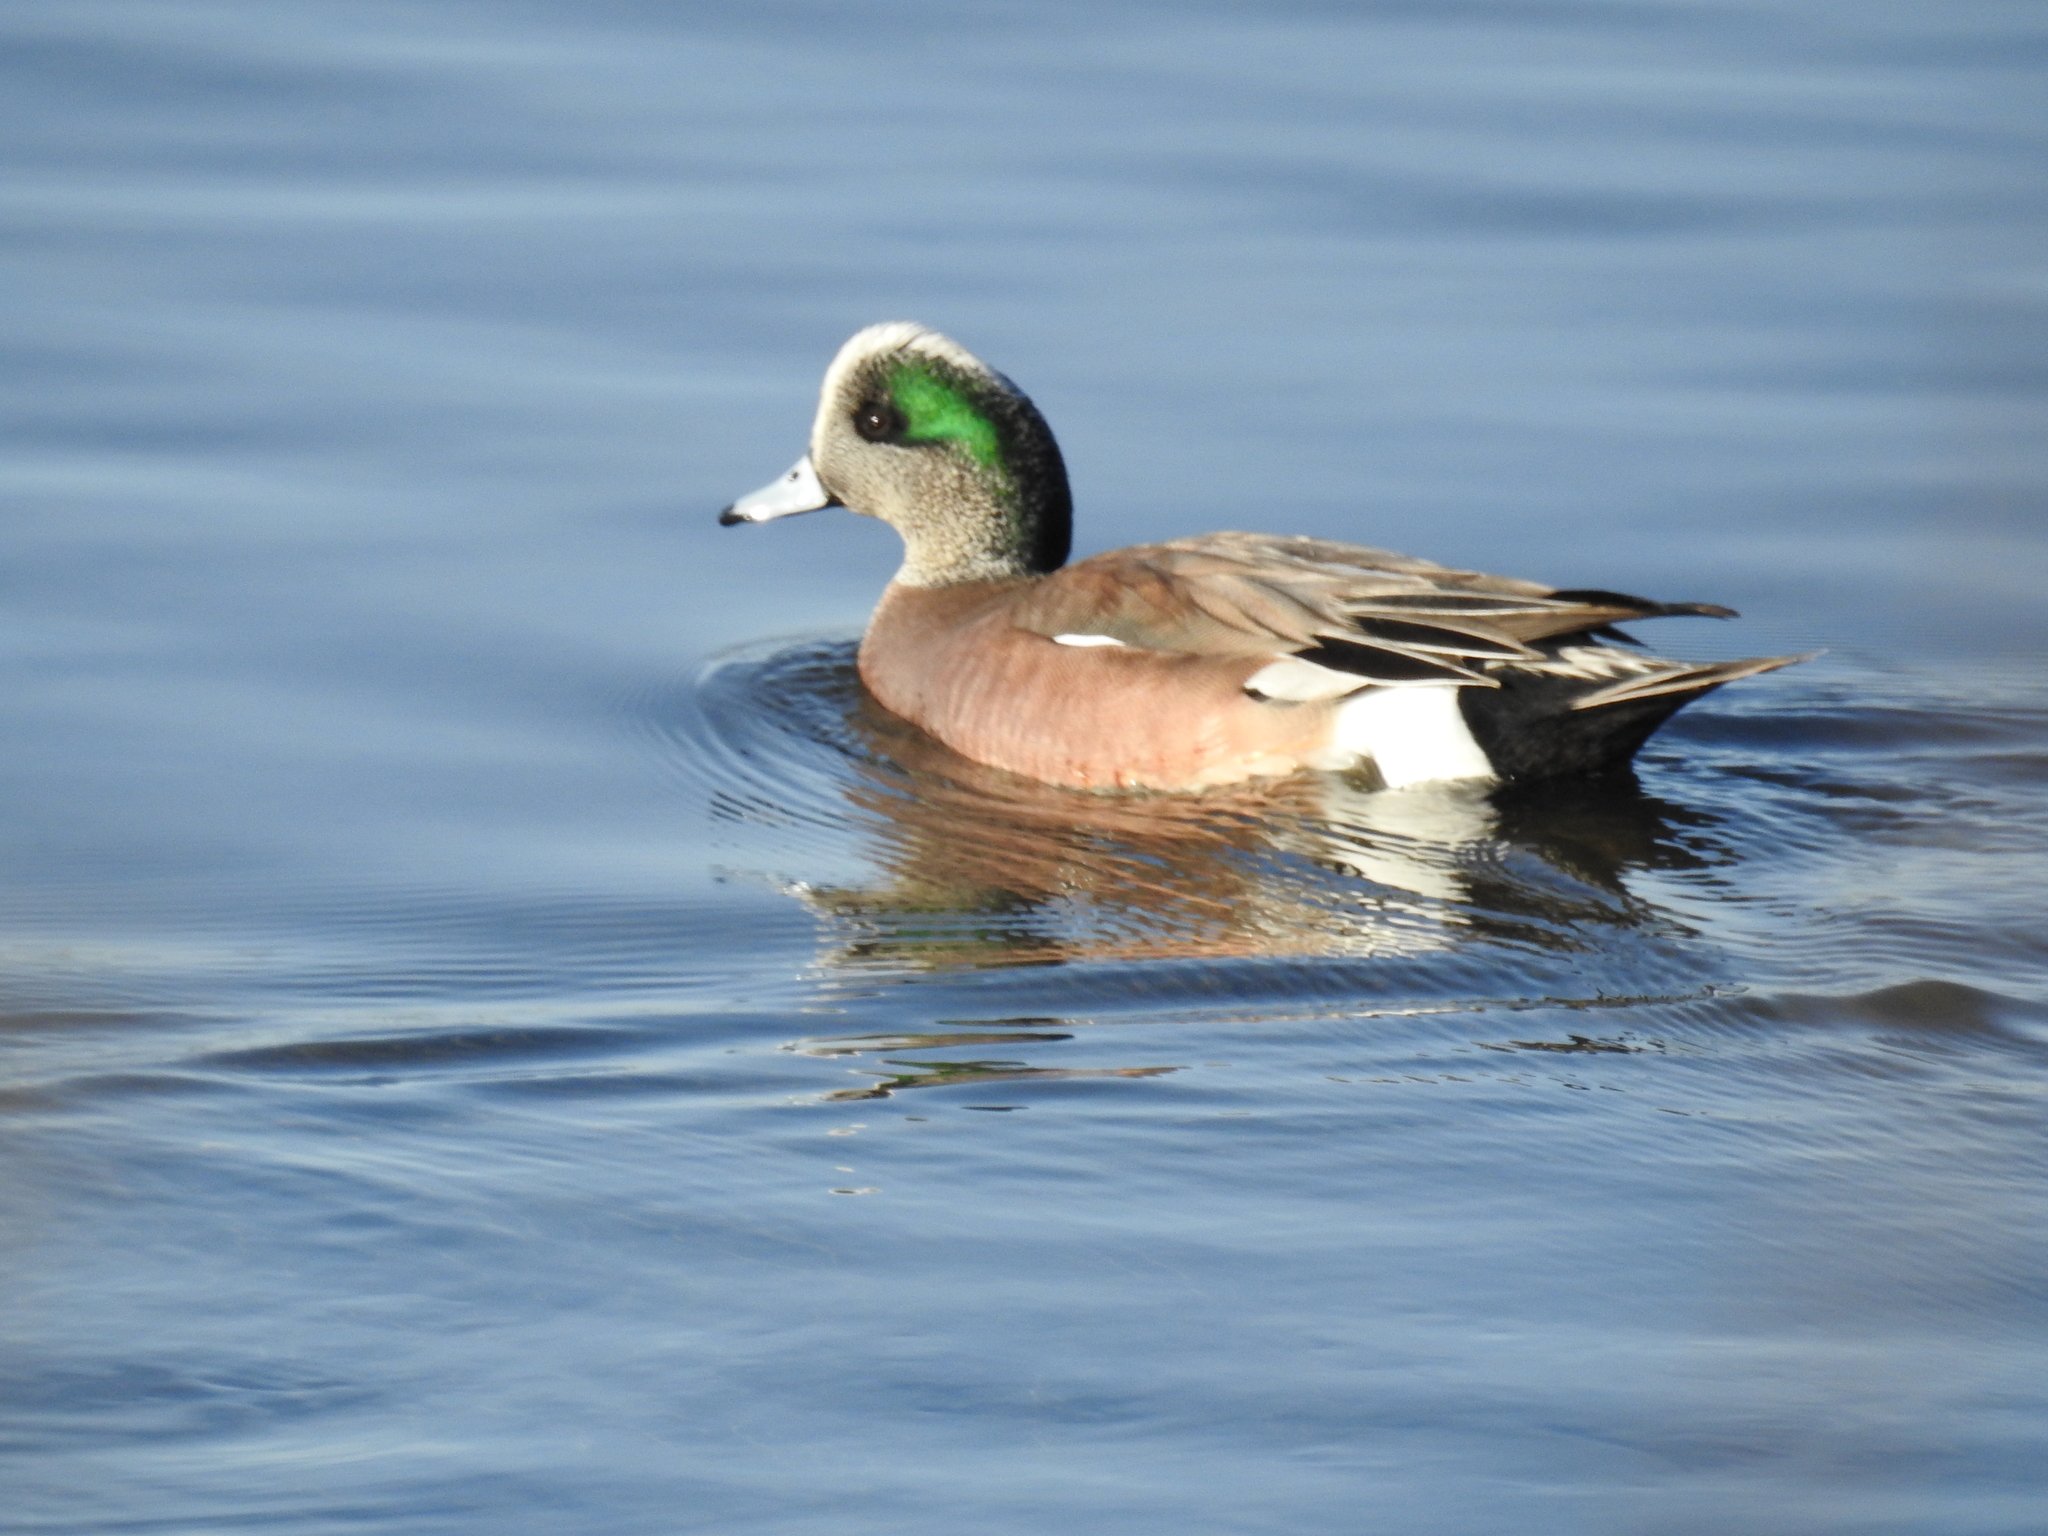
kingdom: Animalia
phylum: Chordata
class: Aves
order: Anseriformes
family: Anatidae
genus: Mareca
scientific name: Mareca americana
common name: American wigeon
